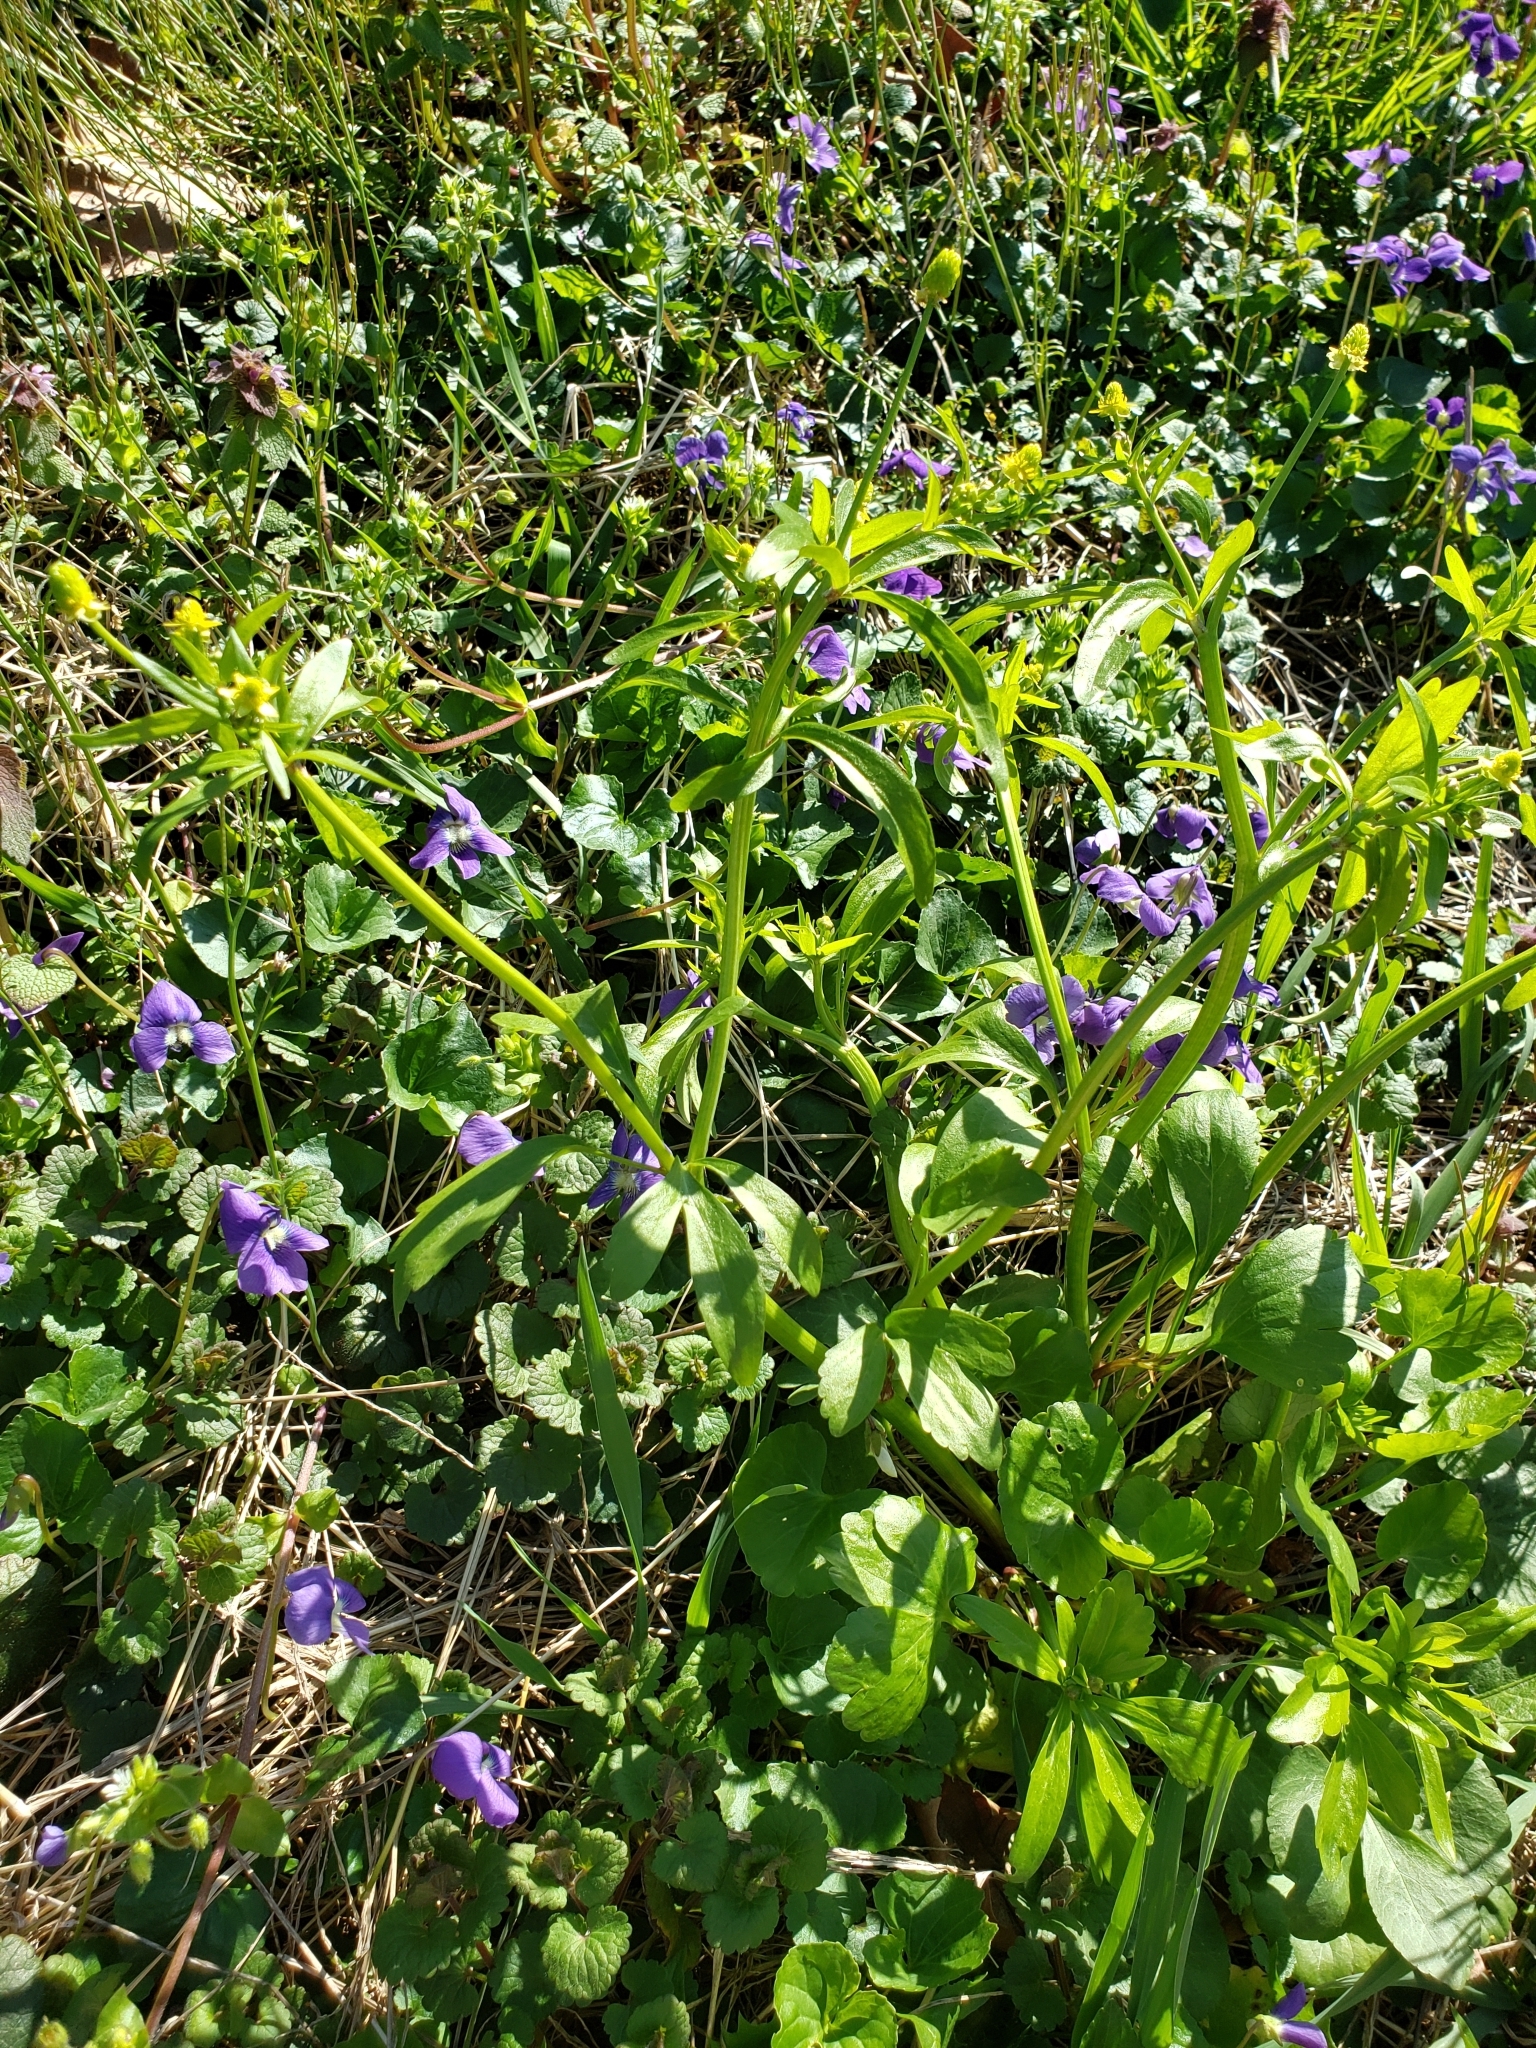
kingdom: Plantae
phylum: Tracheophyta
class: Magnoliopsida
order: Ranunculales
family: Ranunculaceae
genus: Ranunculus
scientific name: Ranunculus abortivus
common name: Early wood buttercup
